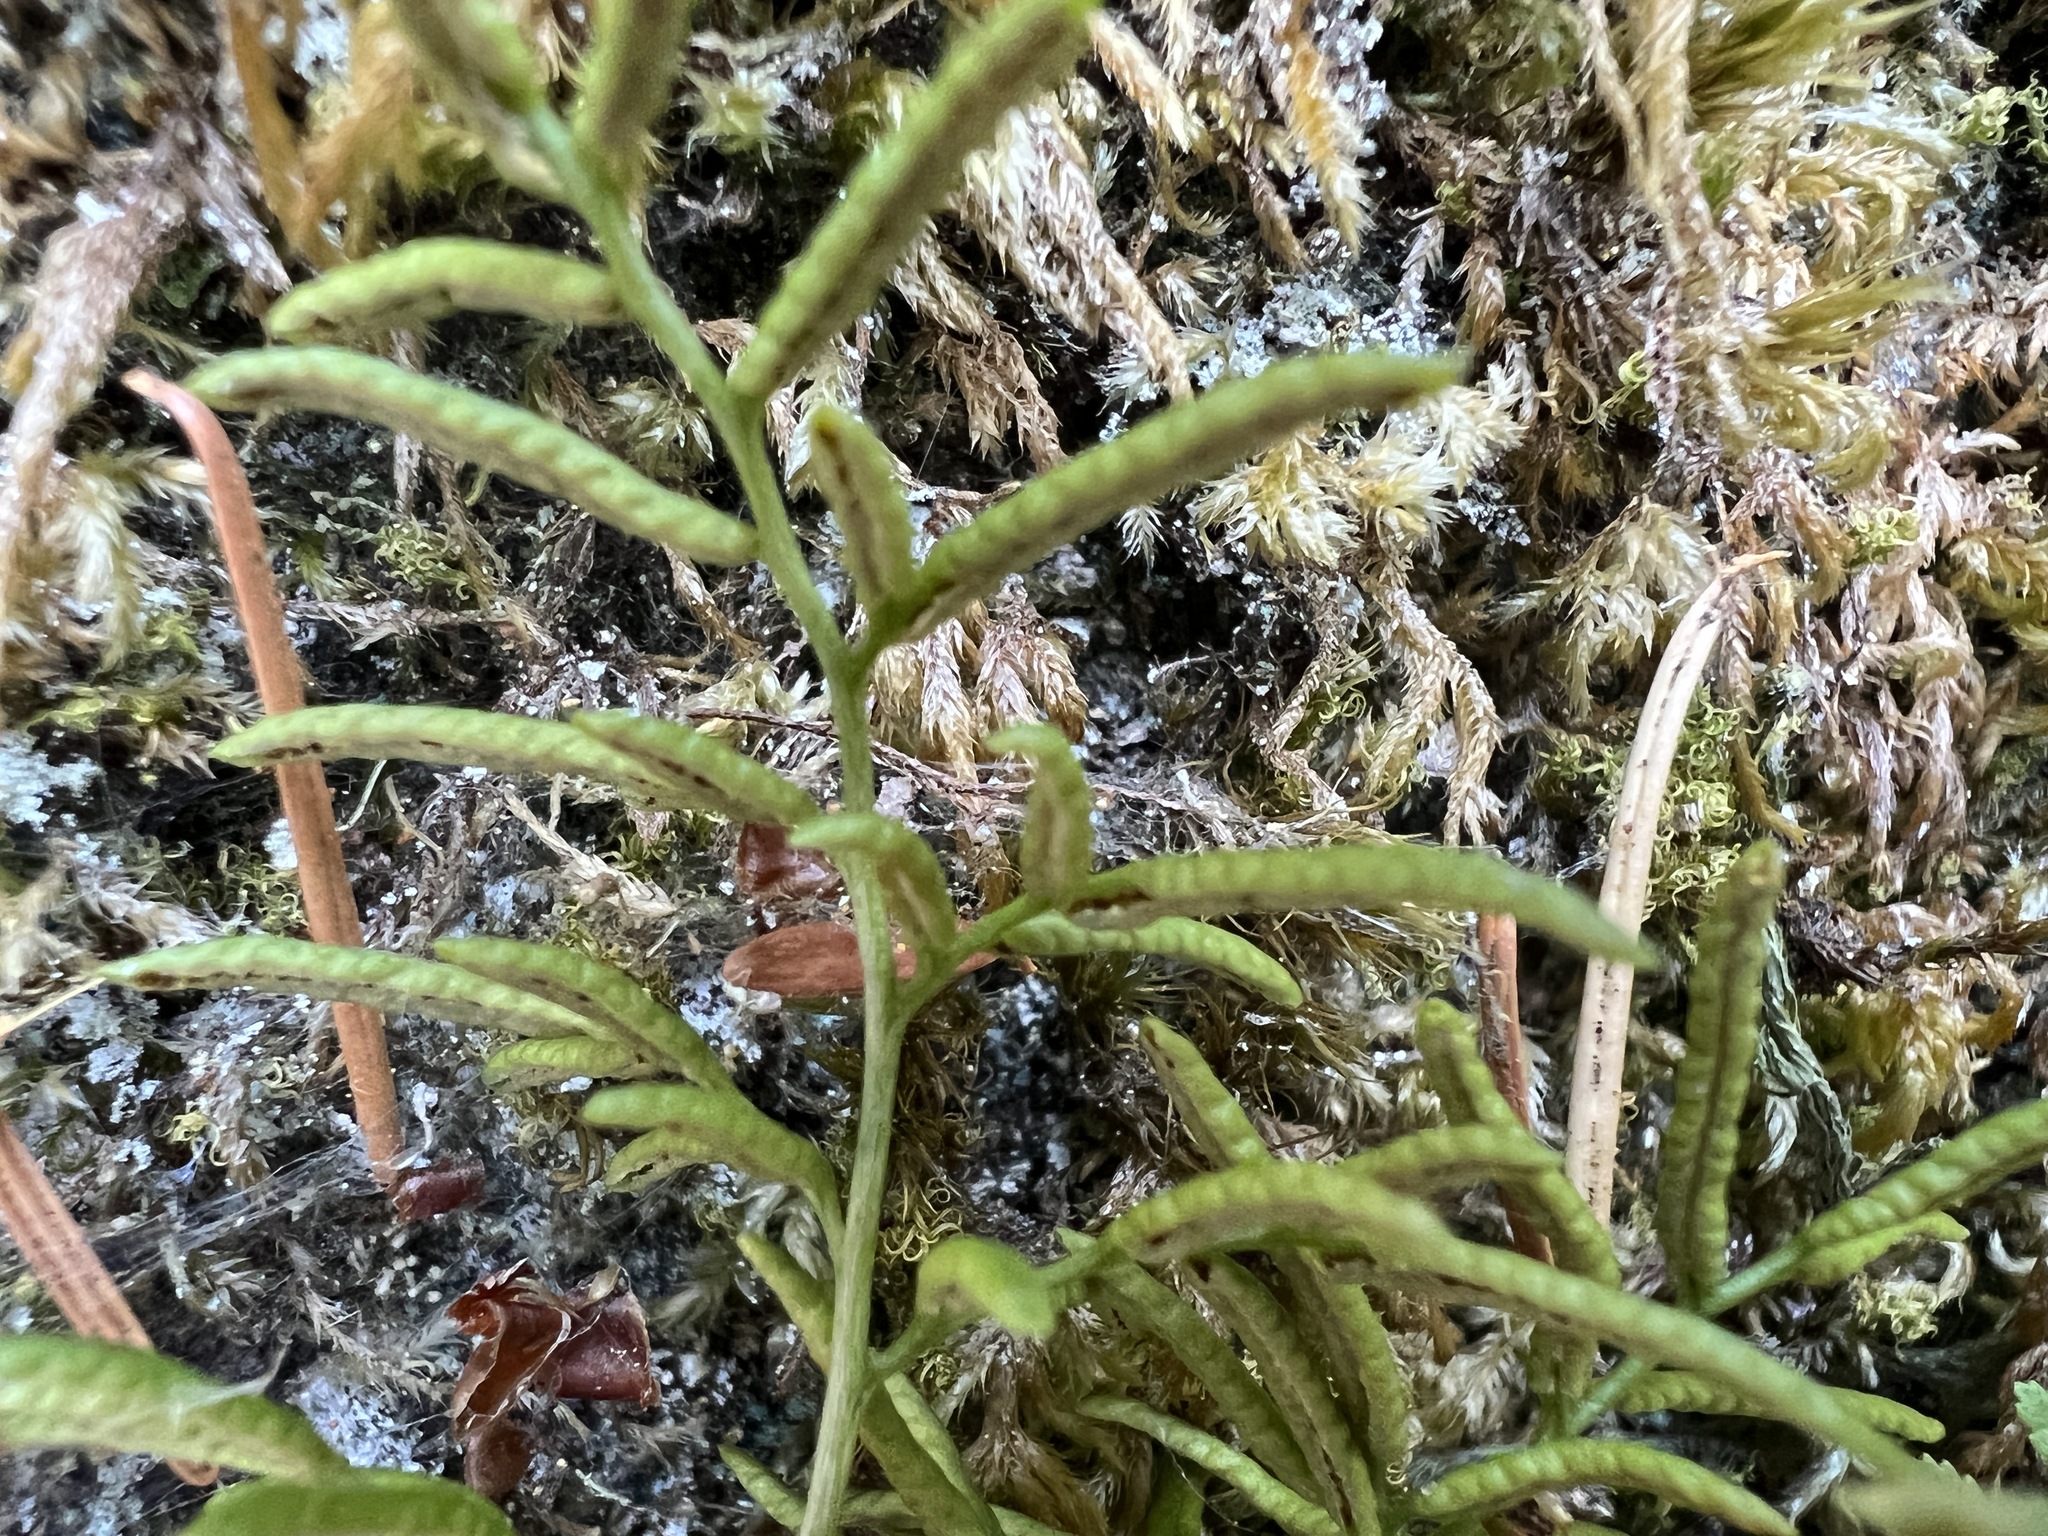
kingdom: Plantae
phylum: Tracheophyta
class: Polypodiopsida
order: Polypodiales
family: Pteridaceae
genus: Cryptogramma
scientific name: Cryptogramma acrostichoides
